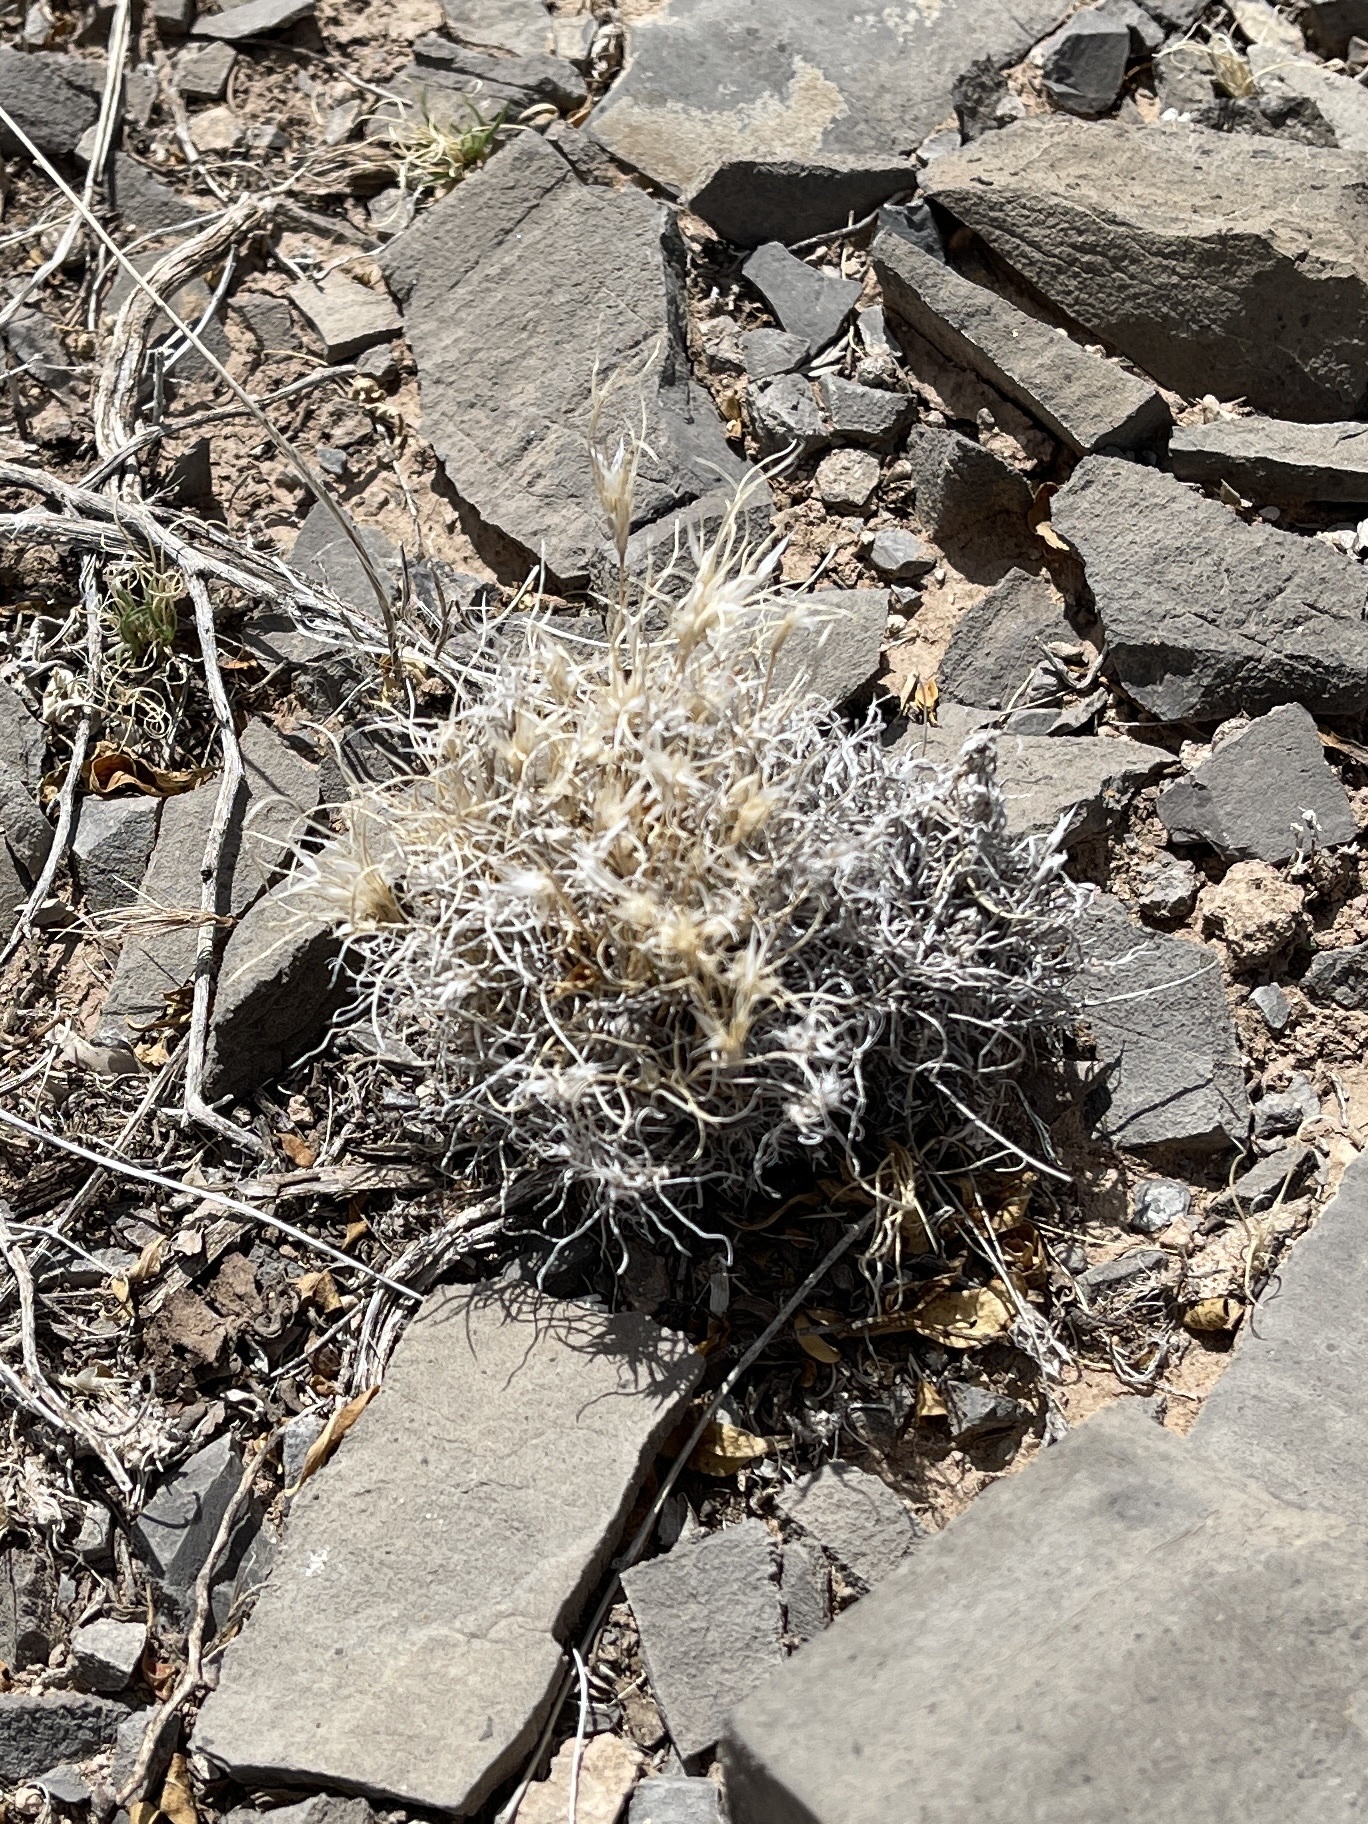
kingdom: Plantae
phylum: Tracheophyta
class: Liliopsida
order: Poales
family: Poaceae
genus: Dasyochloa
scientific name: Dasyochloa pulchella
